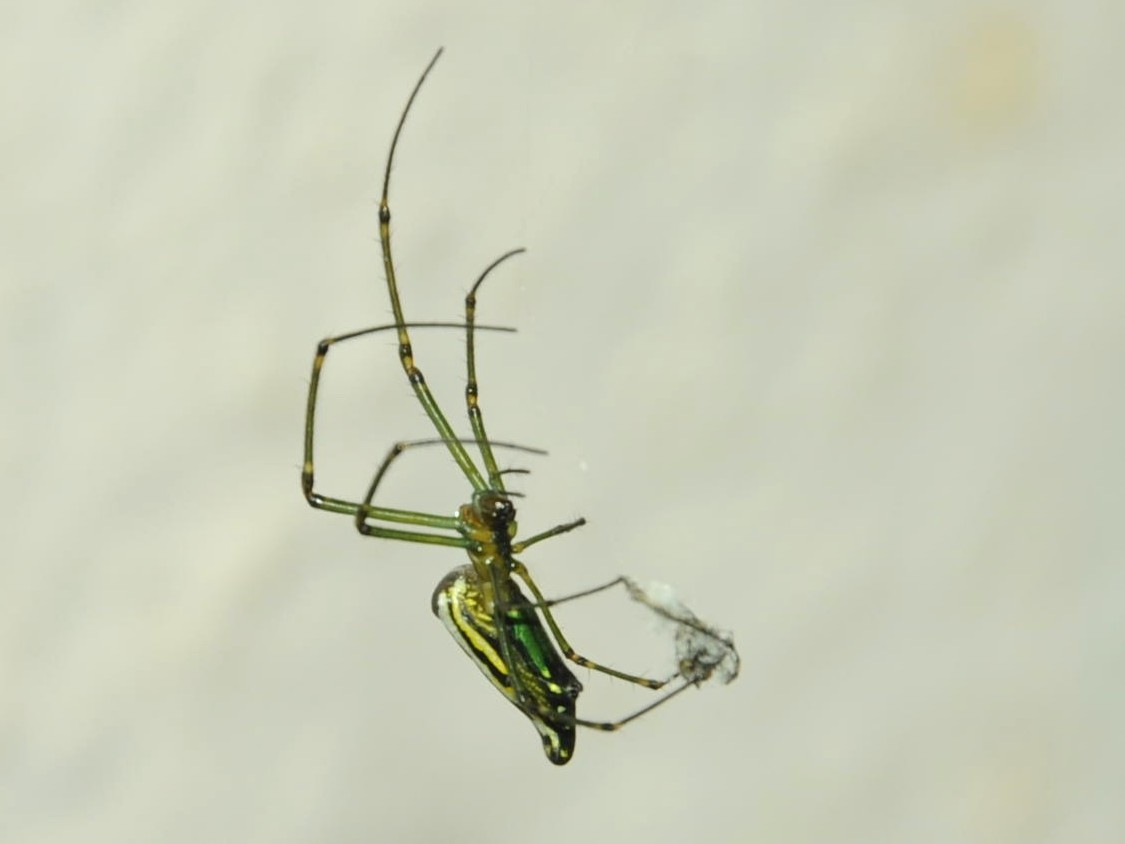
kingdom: Animalia
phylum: Arthropoda
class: Arachnida
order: Araneae
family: Tetragnathidae
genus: Leucauge
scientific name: Leucauge decorata
